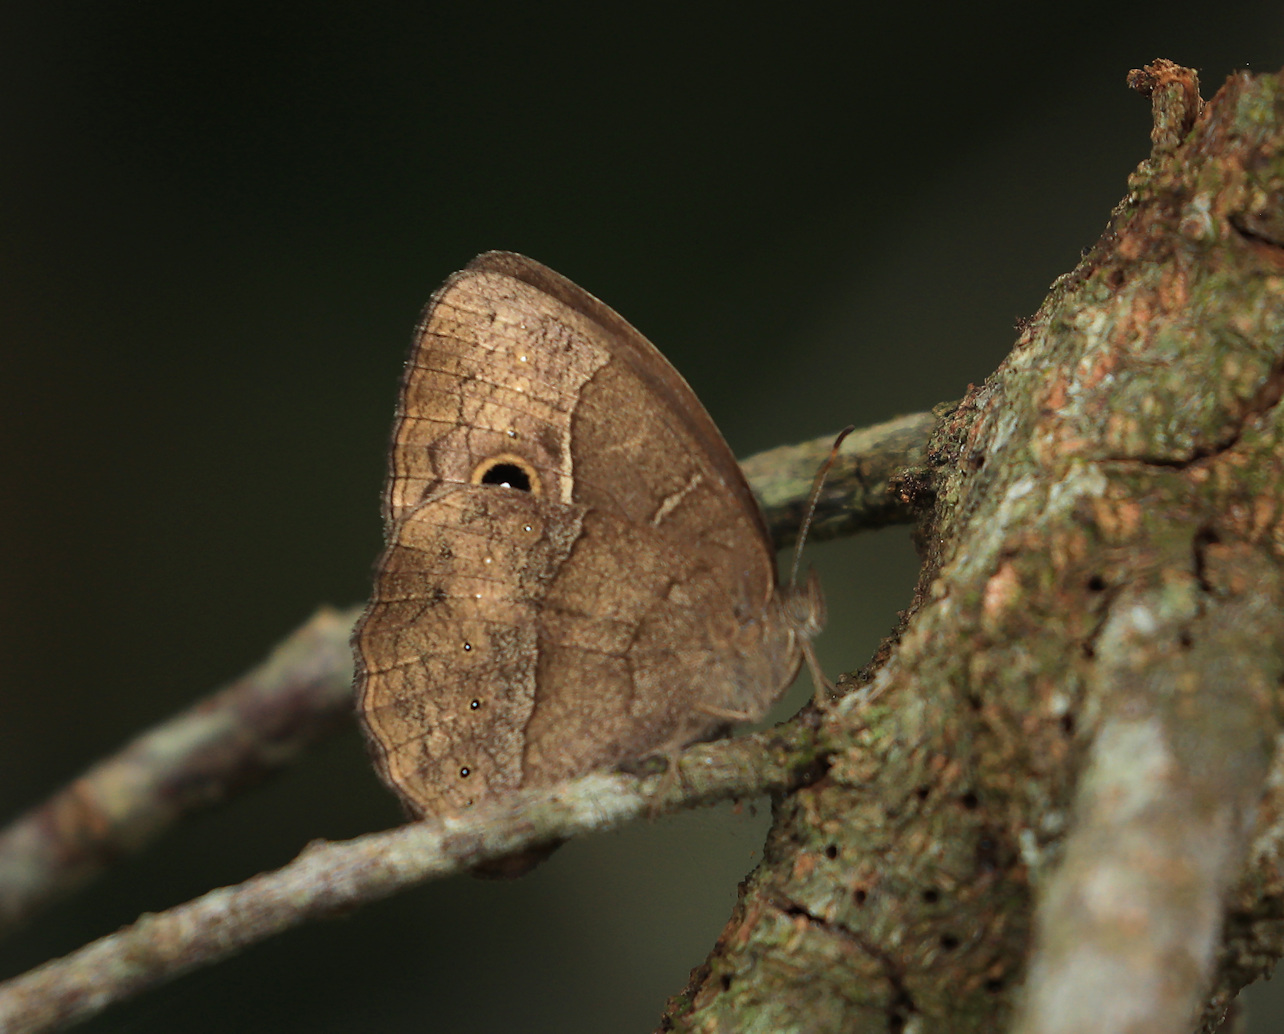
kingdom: Animalia
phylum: Arthropoda
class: Insecta
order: Lepidoptera
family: Nymphalidae
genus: Mycalesis
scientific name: Mycalesis rhacotis
